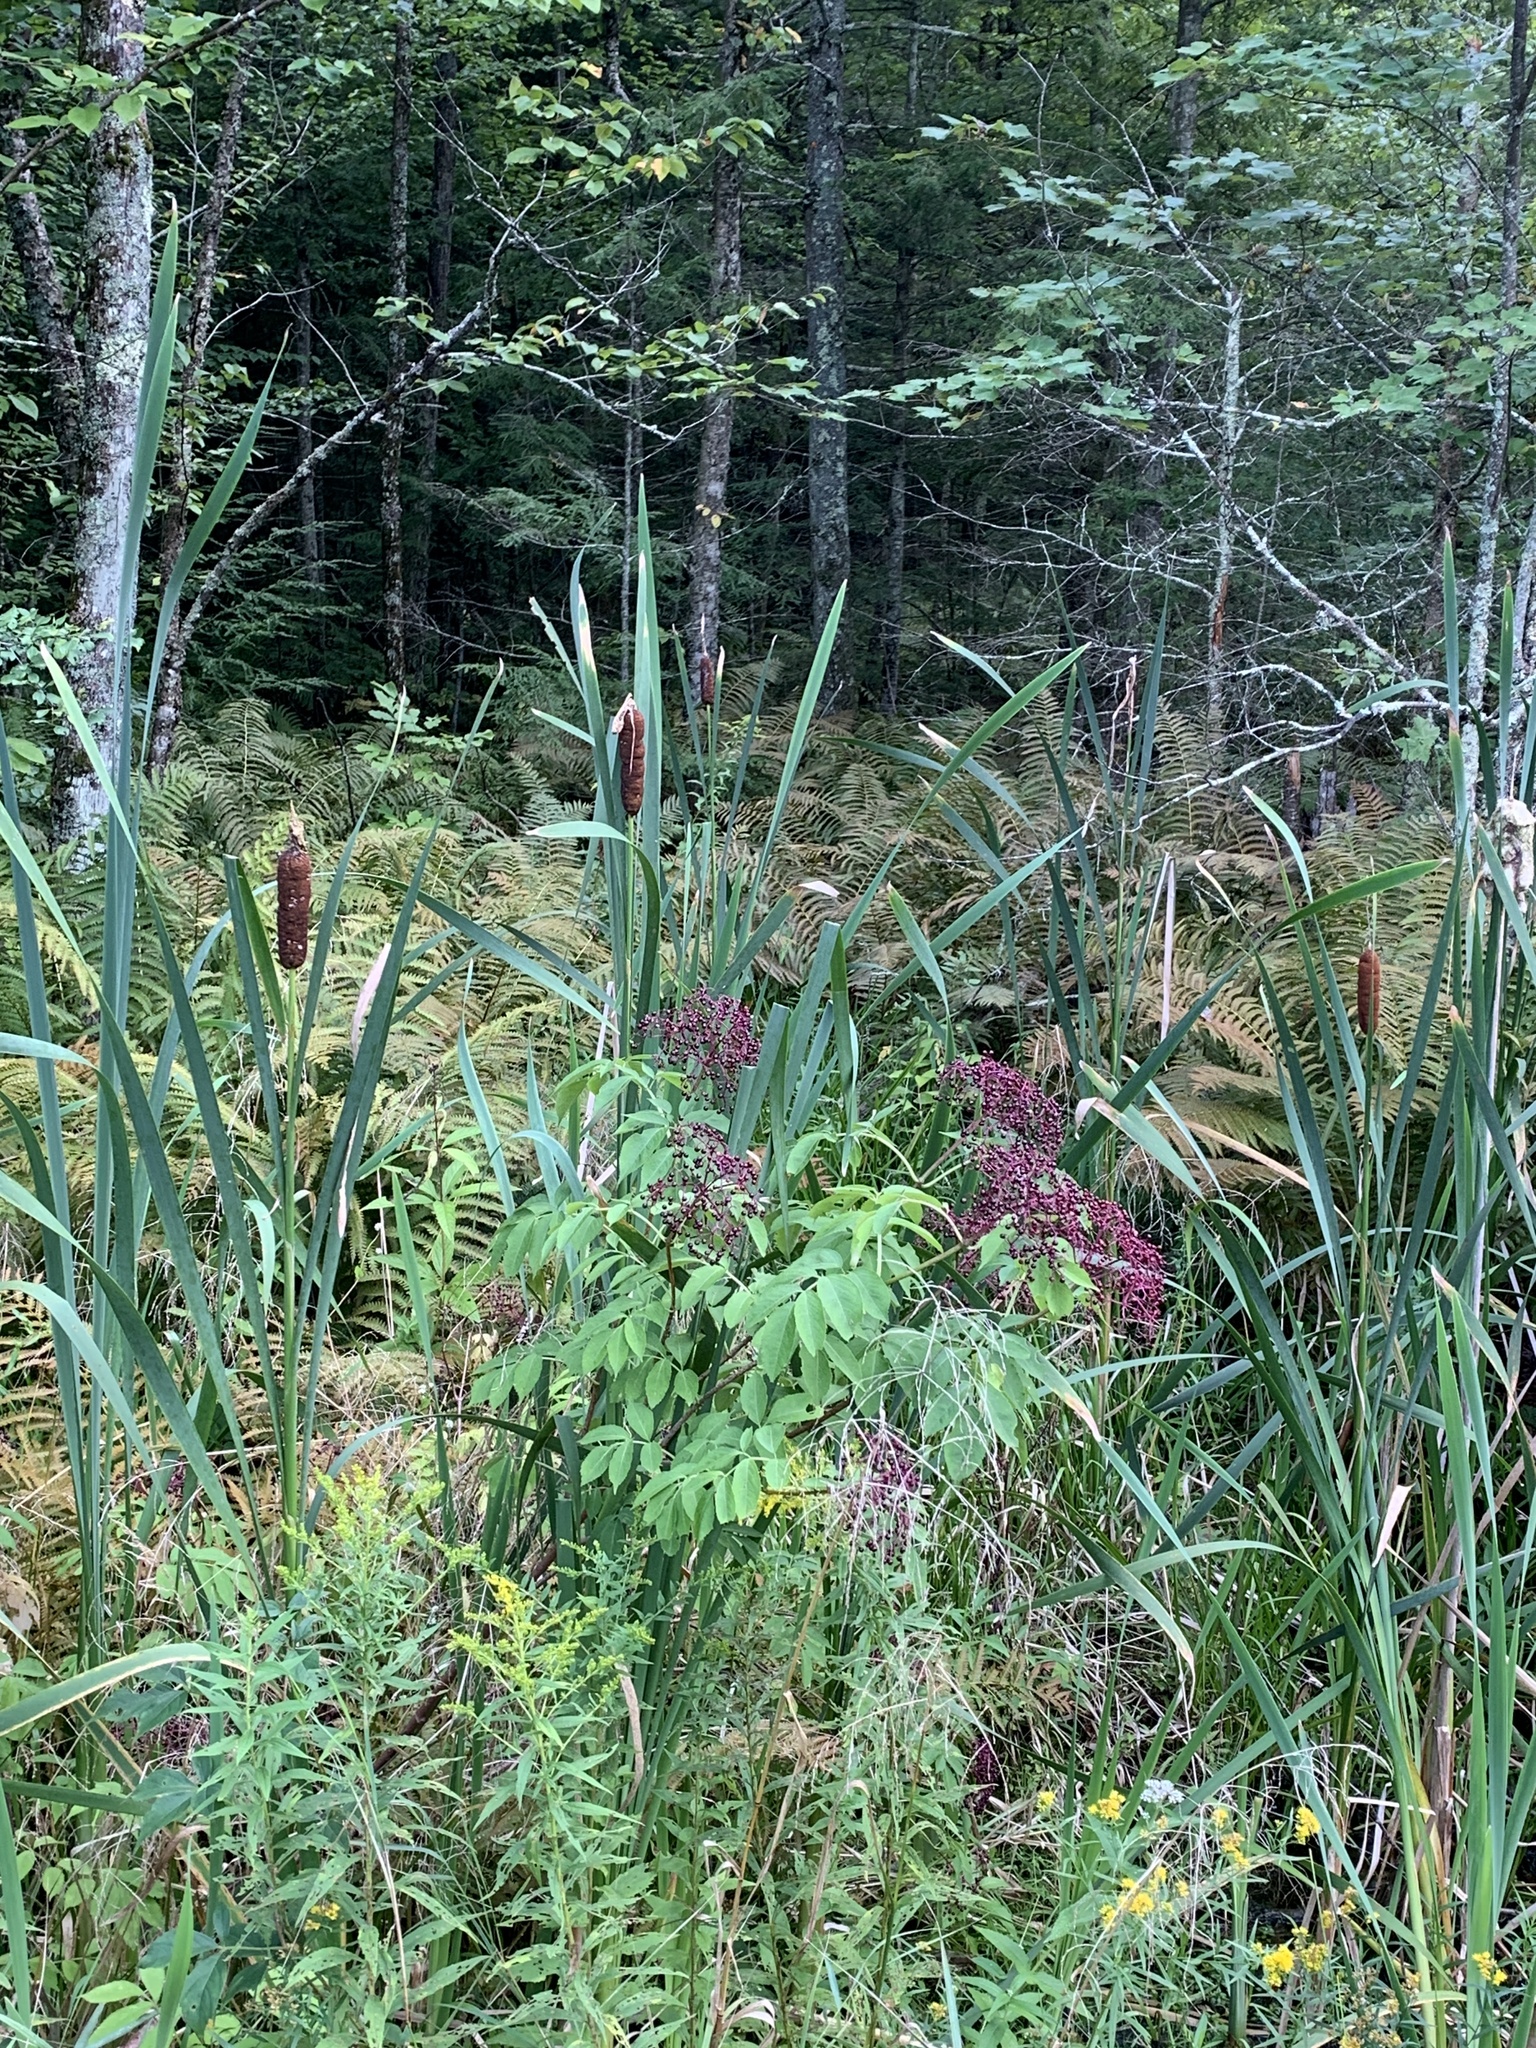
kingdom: Plantae
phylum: Tracheophyta
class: Magnoliopsida
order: Dipsacales
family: Viburnaceae
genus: Sambucus
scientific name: Sambucus canadensis
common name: American elder
